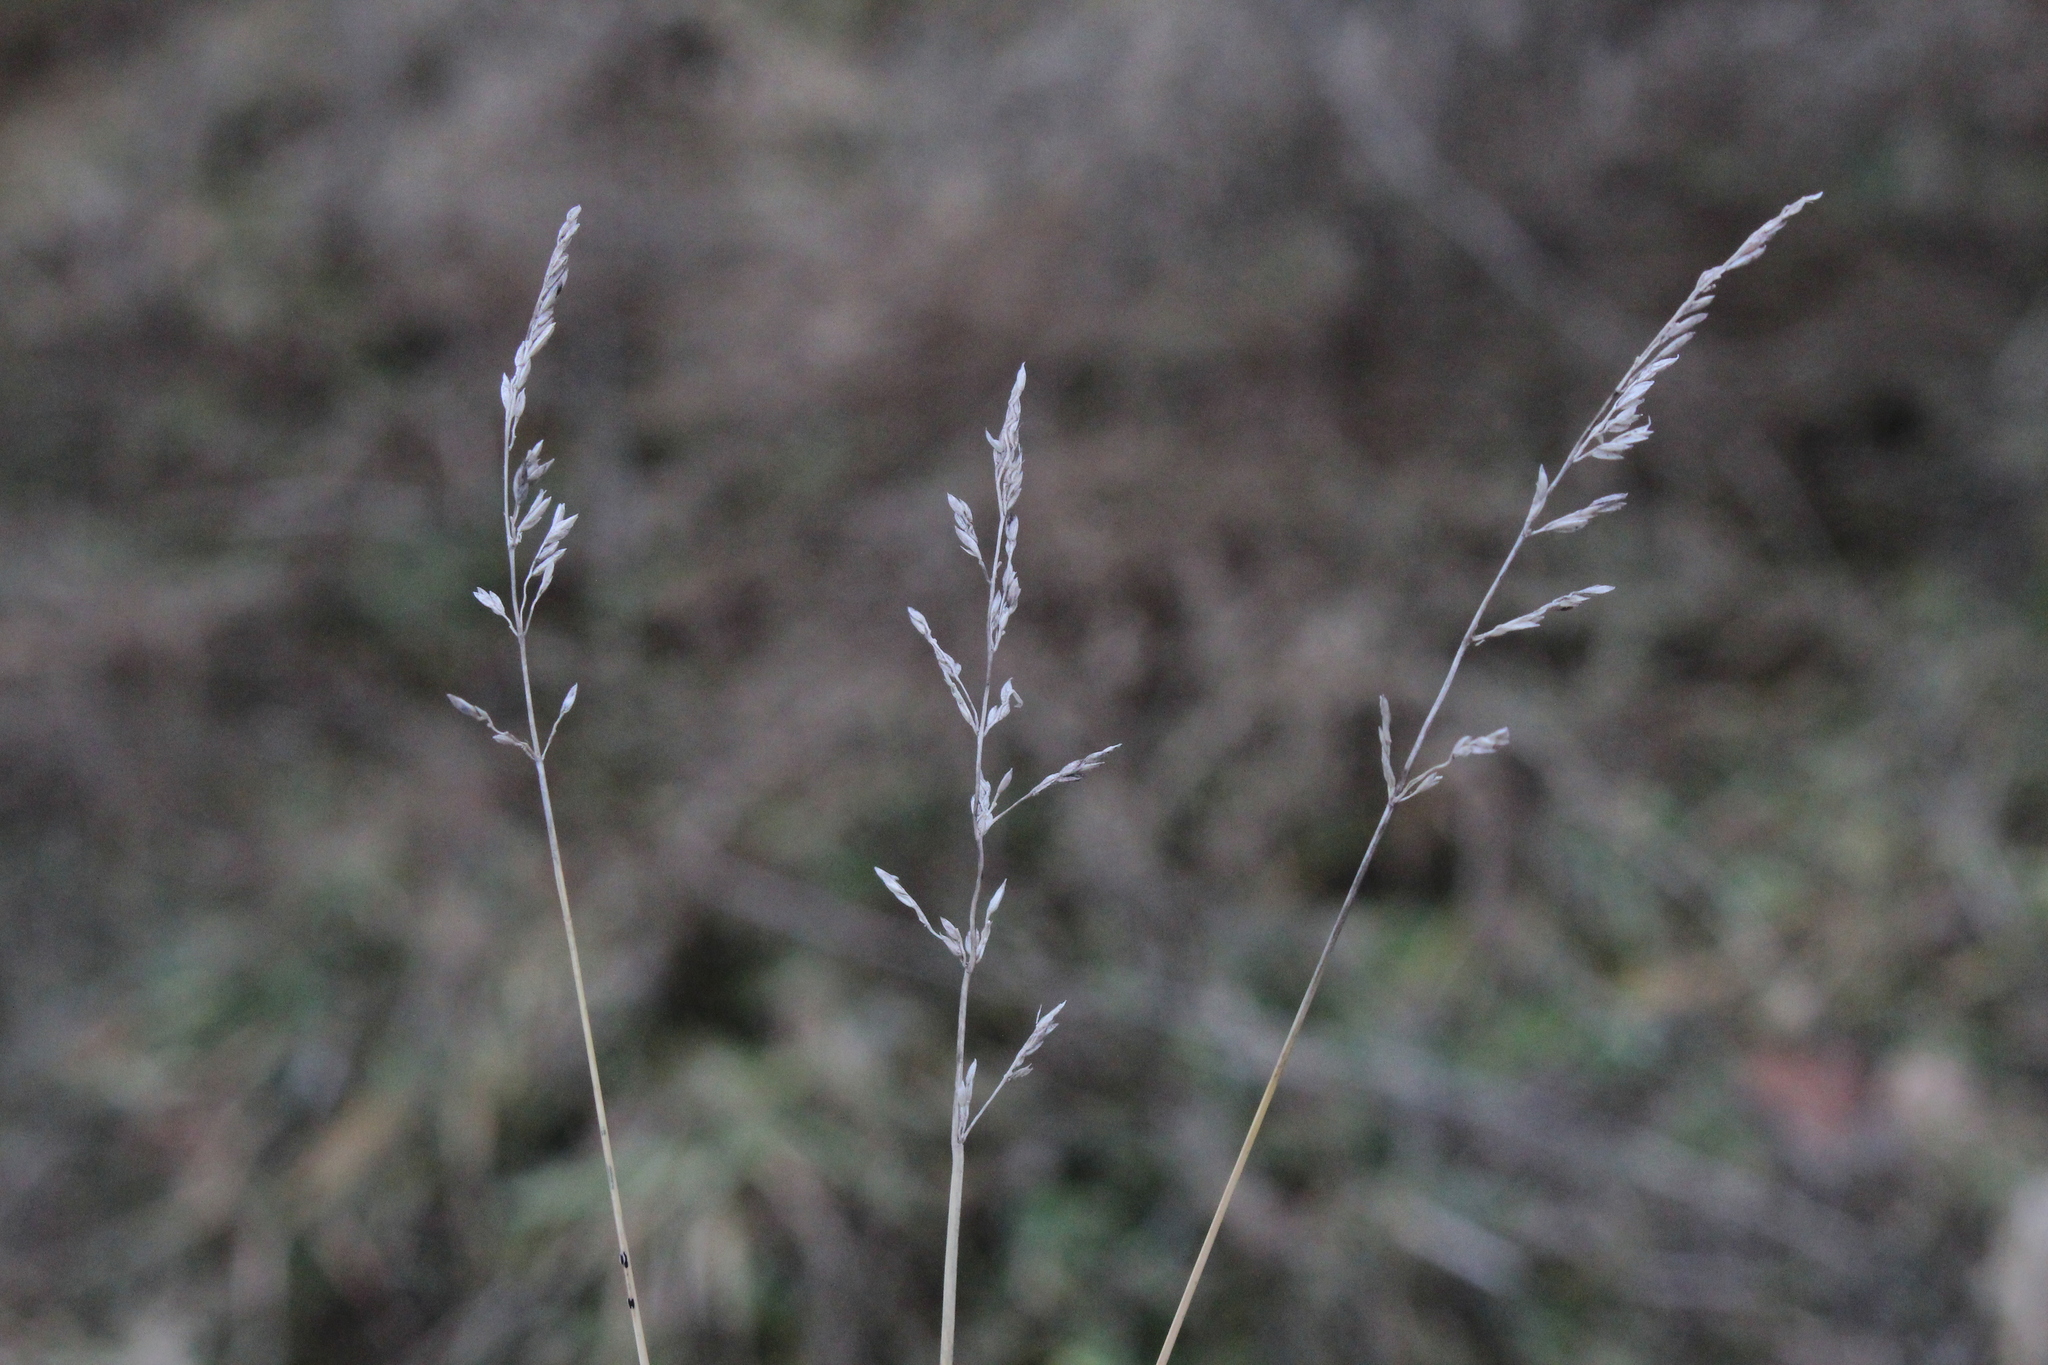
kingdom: Plantae
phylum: Tracheophyta
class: Liliopsida
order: Poales
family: Poaceae
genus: Poa
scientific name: Poa compressa
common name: Canada bluegrass
